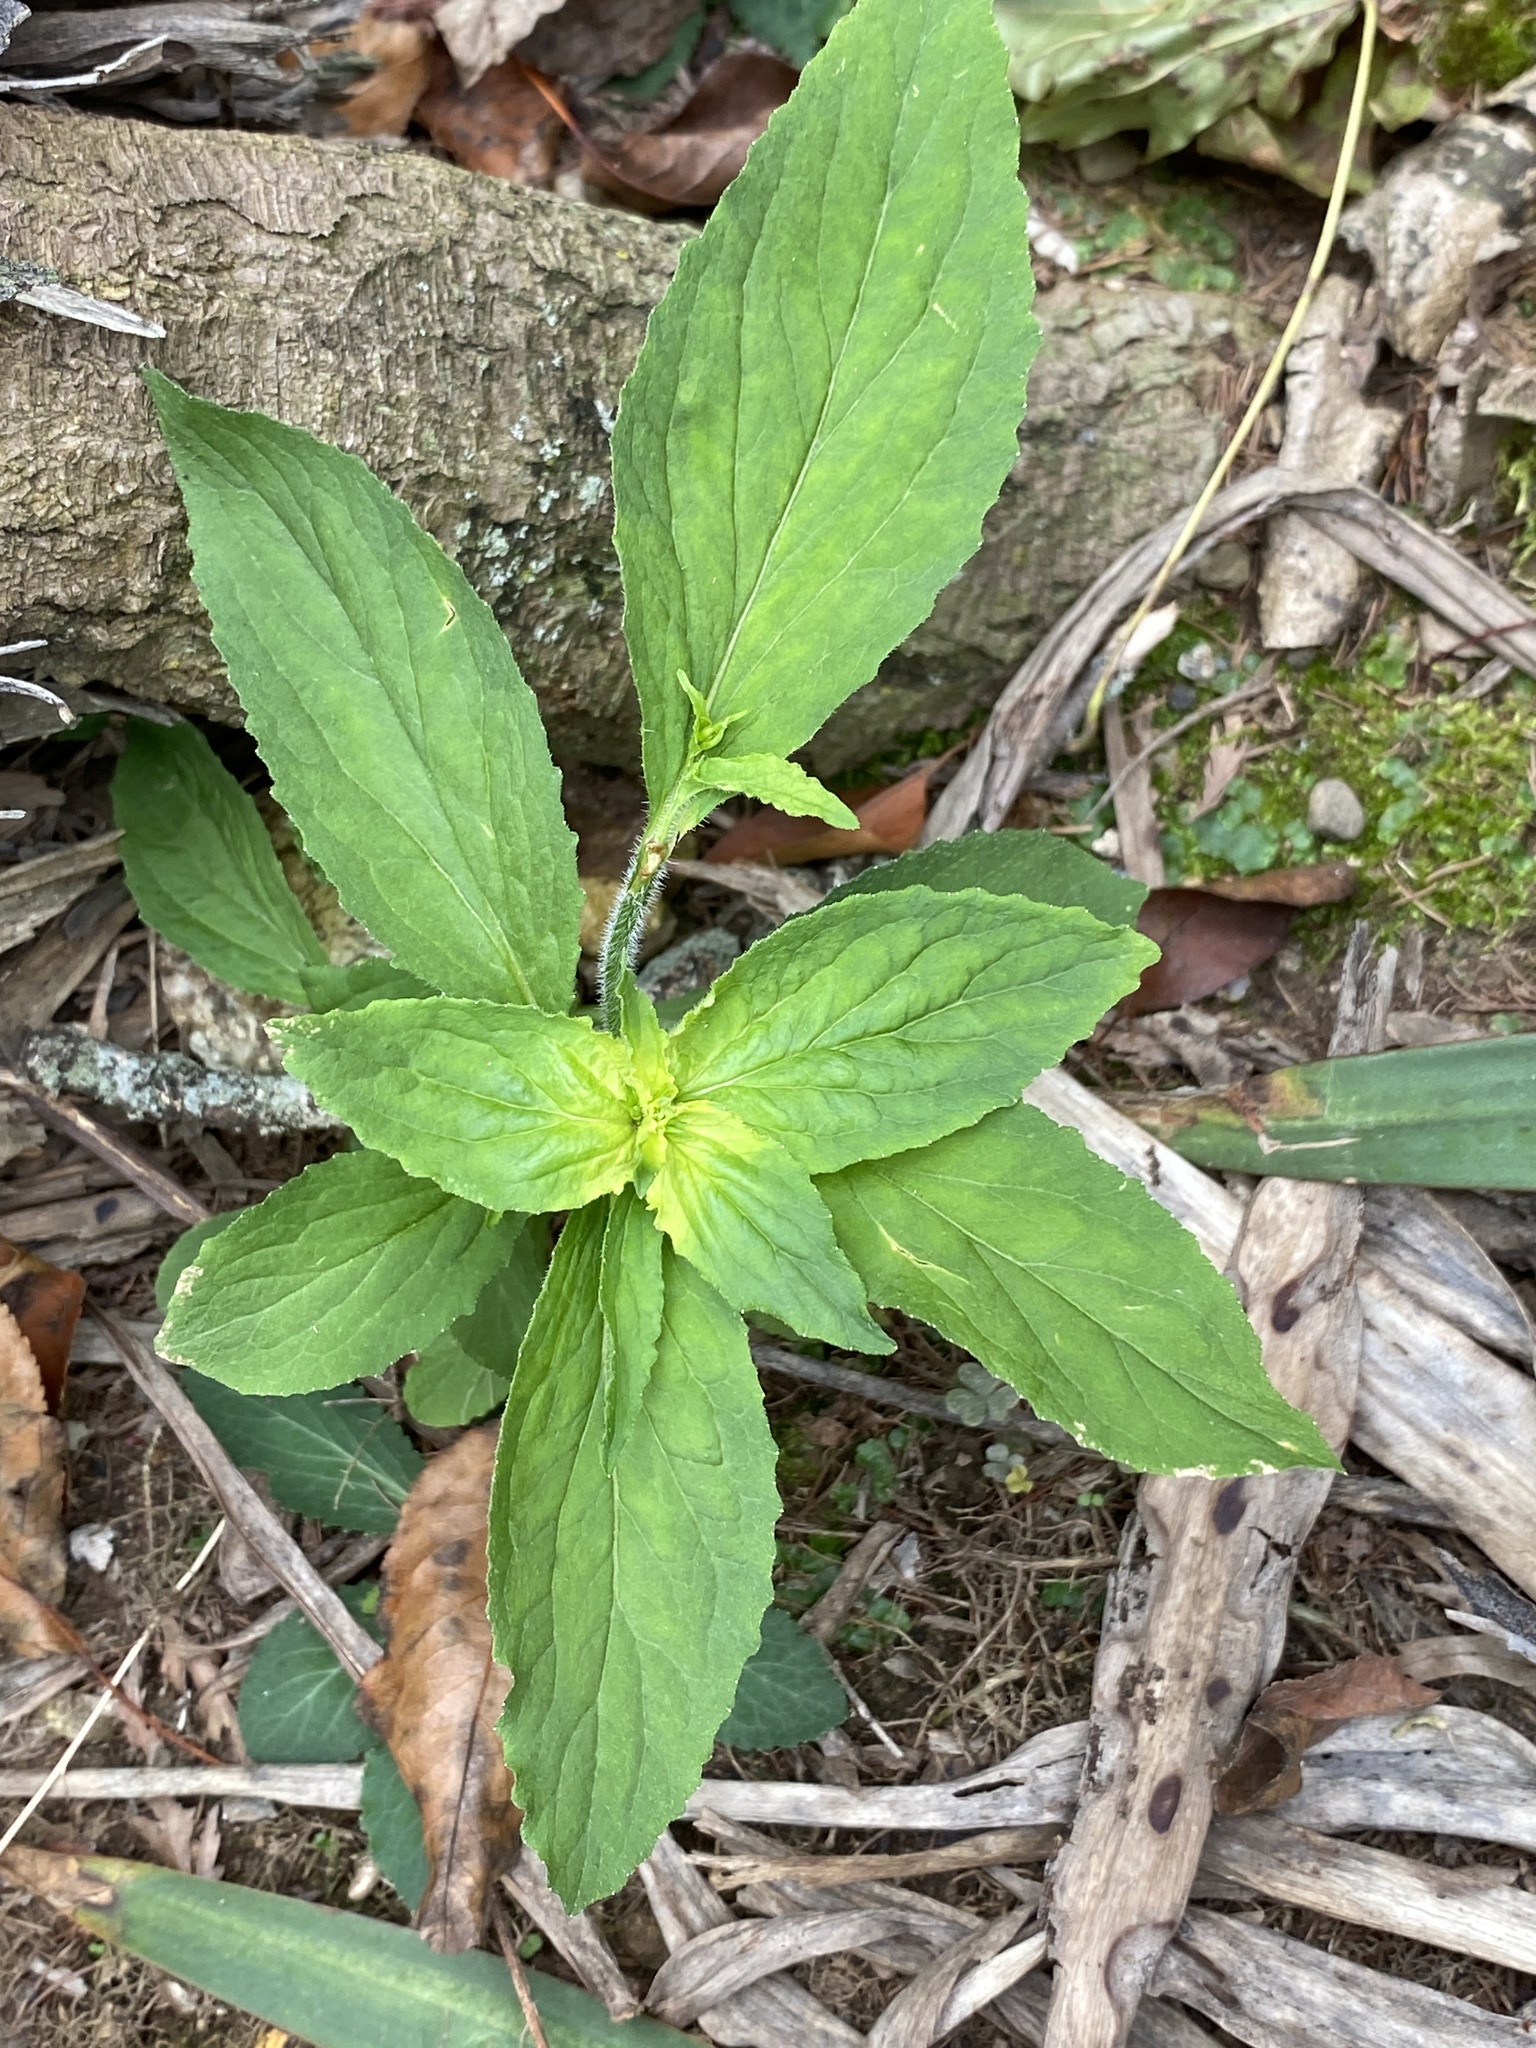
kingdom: Plantae
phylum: Tracheophyta
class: Magnoliopsida
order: Asterales
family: Campanulaceae
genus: Lobelia
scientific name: Lobelia inflata
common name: Indian tobacco
